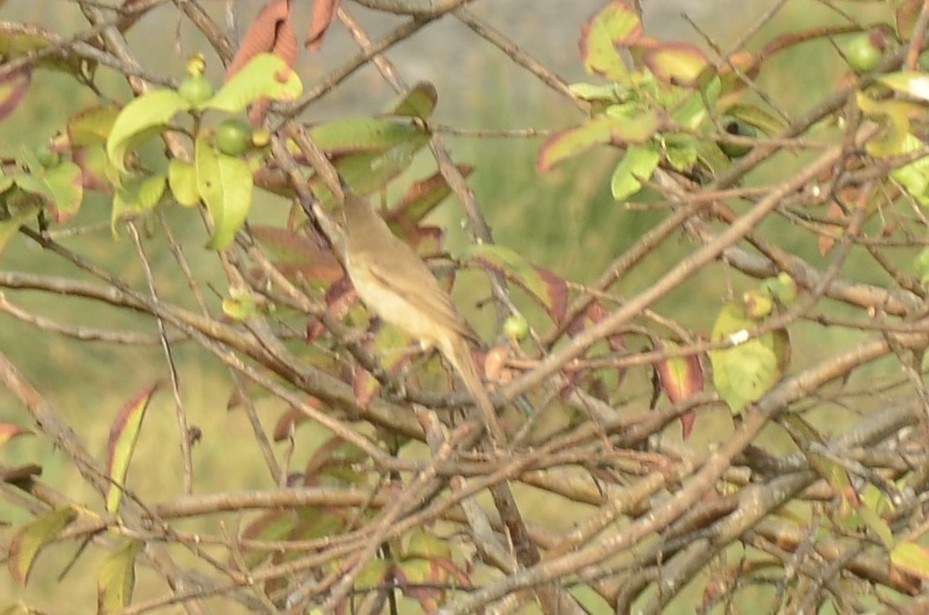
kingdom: Animalia
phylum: Chordata
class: Aves
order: Passeriformes
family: Acrocephalidae
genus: Acrocephalus
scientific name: Acrocephalus stentoreus
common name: Clamorous reed warbler
